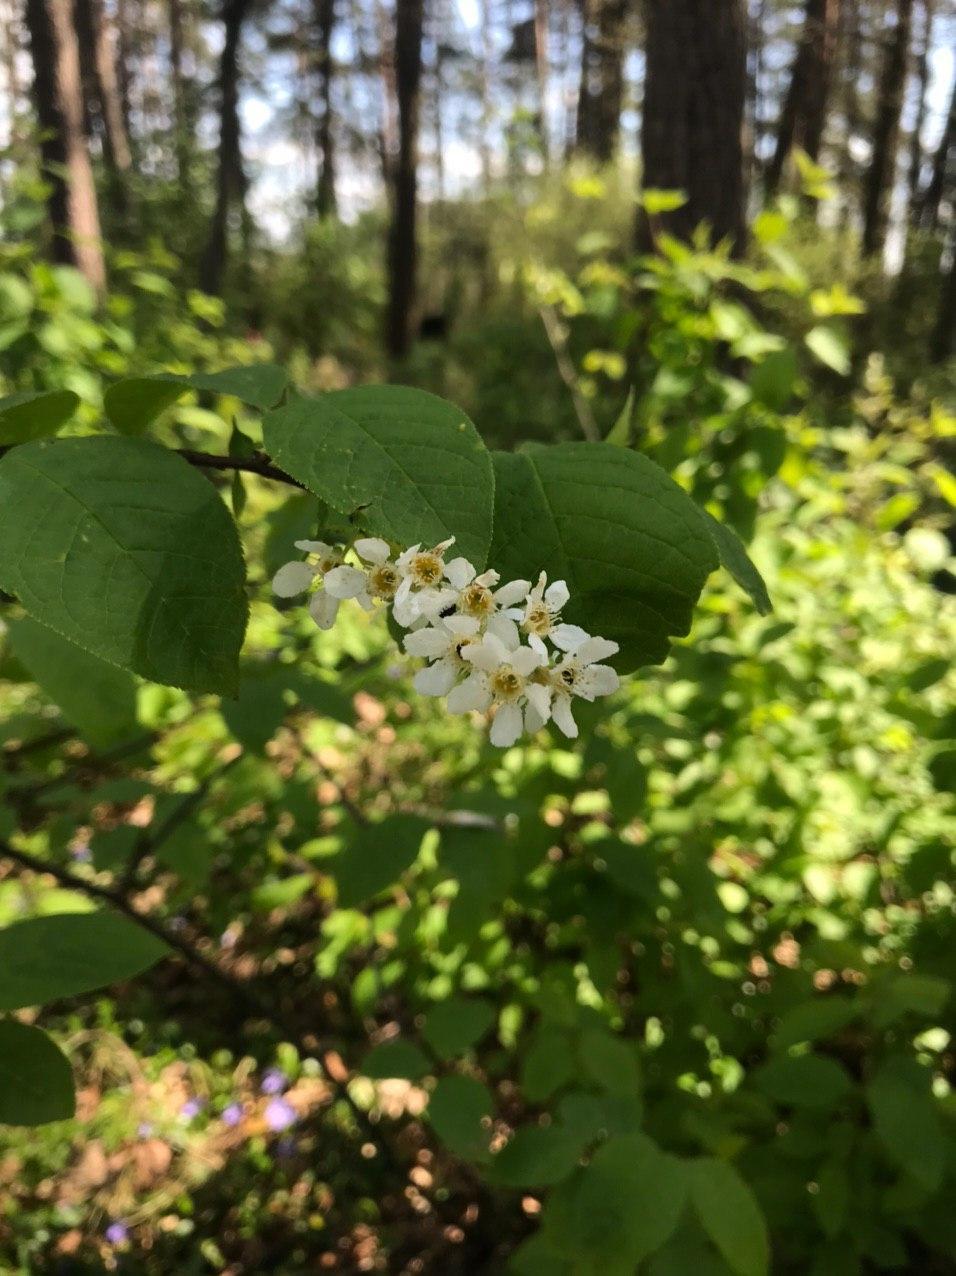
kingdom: Plantae
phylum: Tracheophyta
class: Magnoliopsida
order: Rosales
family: Rosaceae
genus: Prunus
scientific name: Prunus padus
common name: Bird cherry
